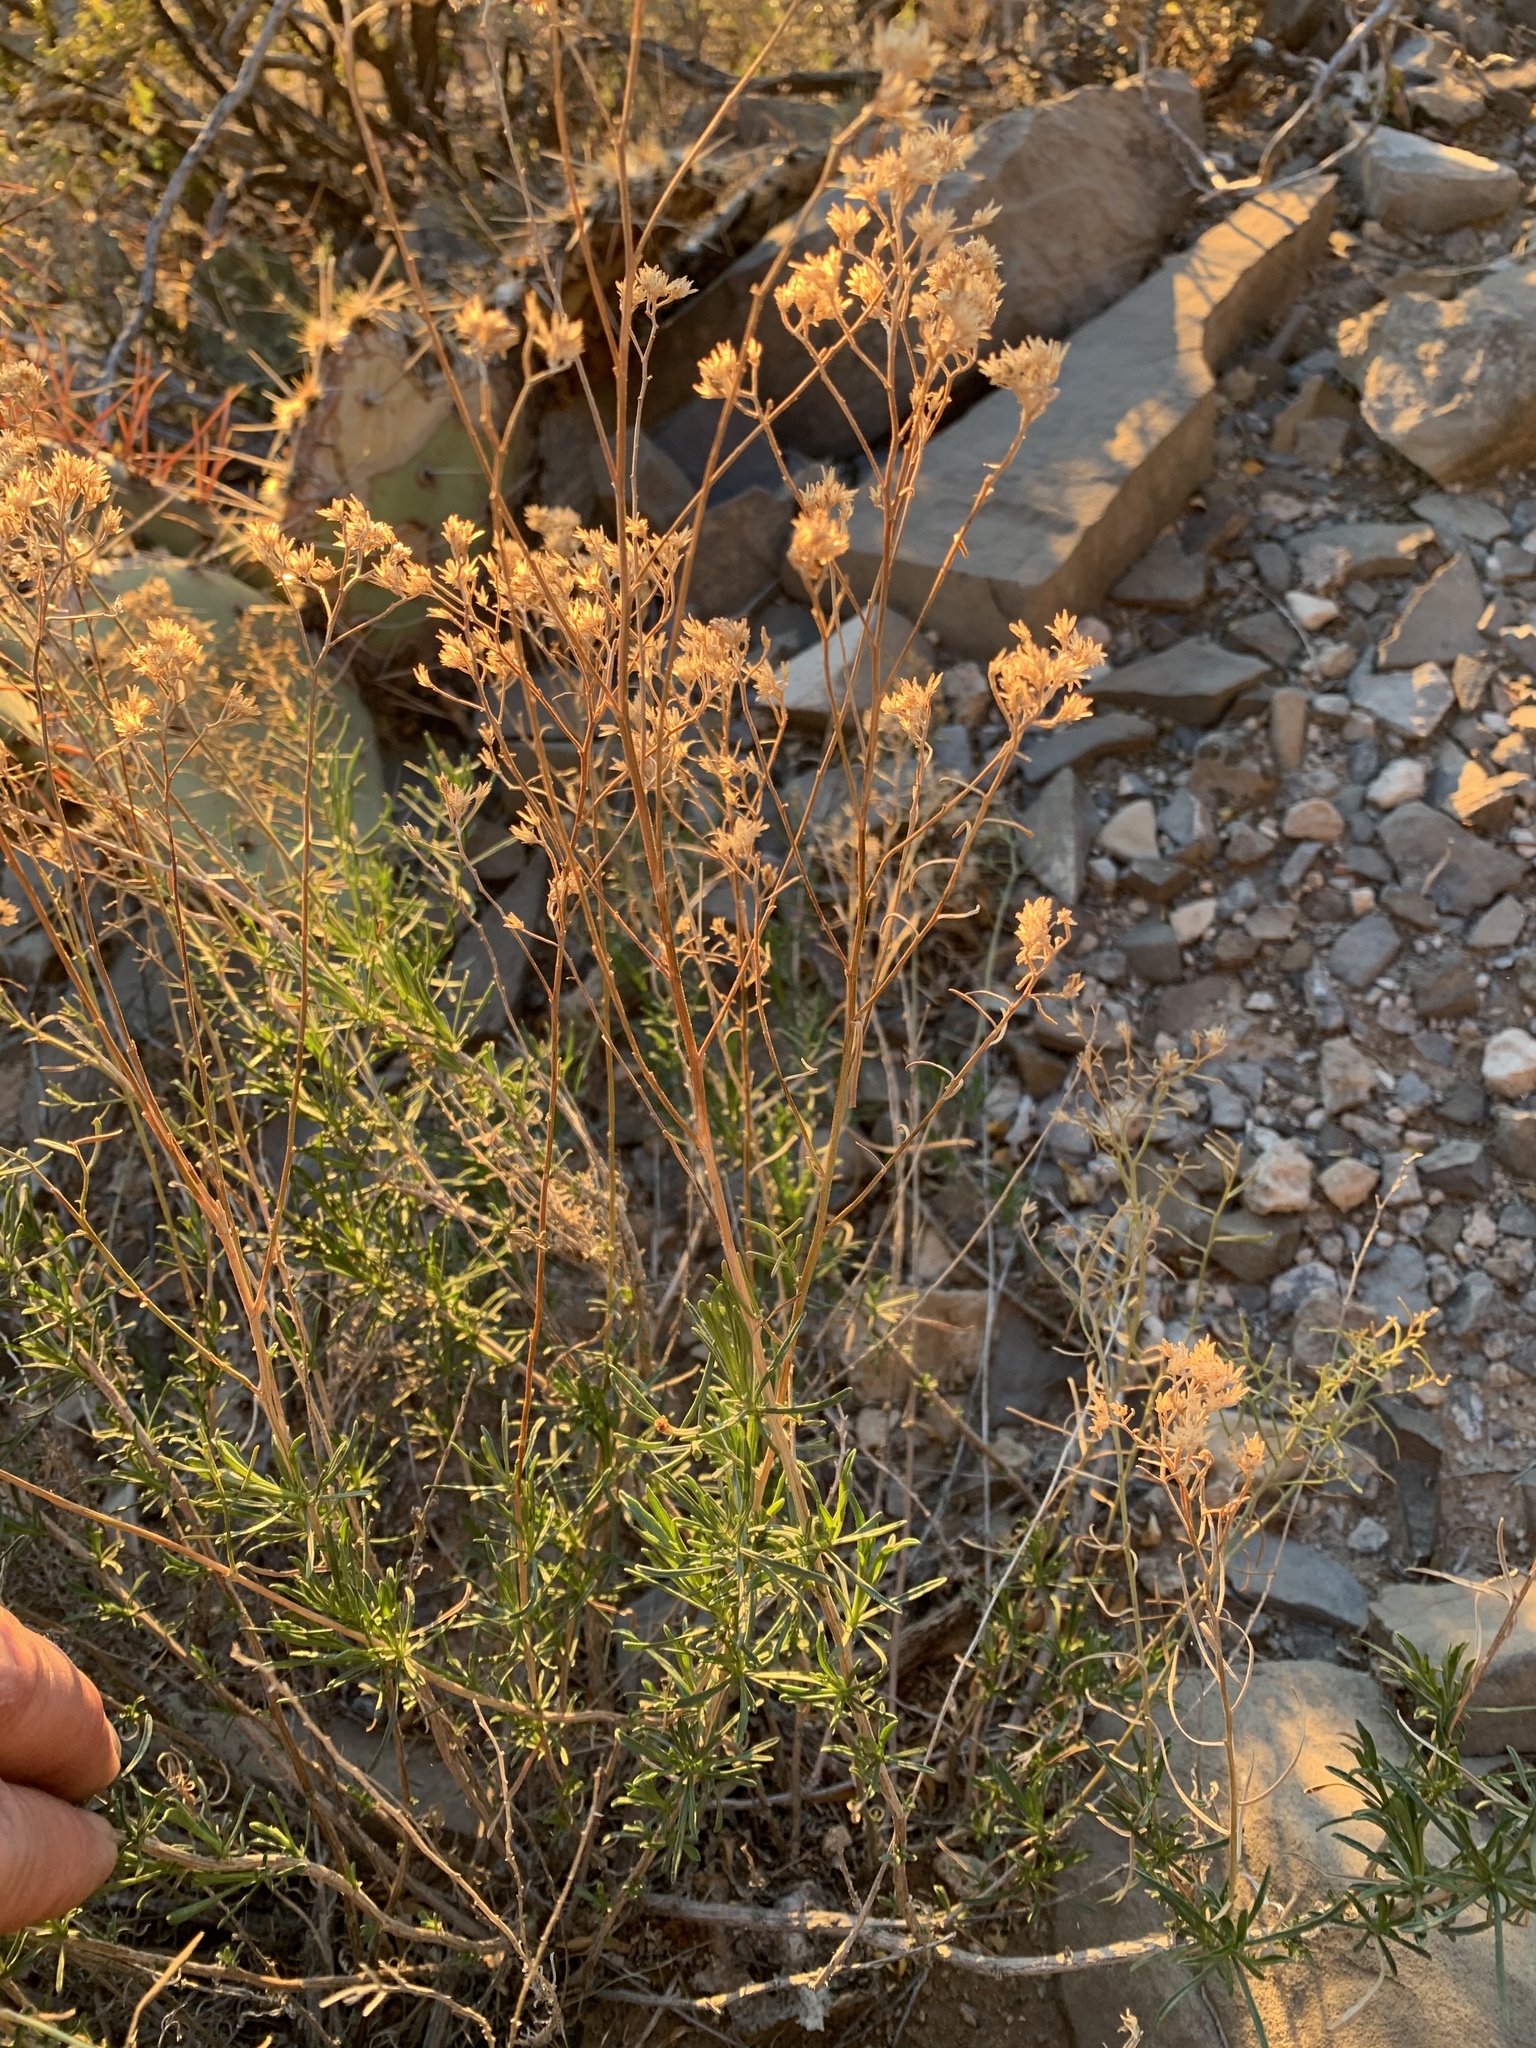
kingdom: Plantae
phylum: Tracheophyta
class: Magnoliopsida
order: Asterales
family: Asteraceae
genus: Gutierrezia
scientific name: Gutierrezia sarothrae
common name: Broom snakeweed
